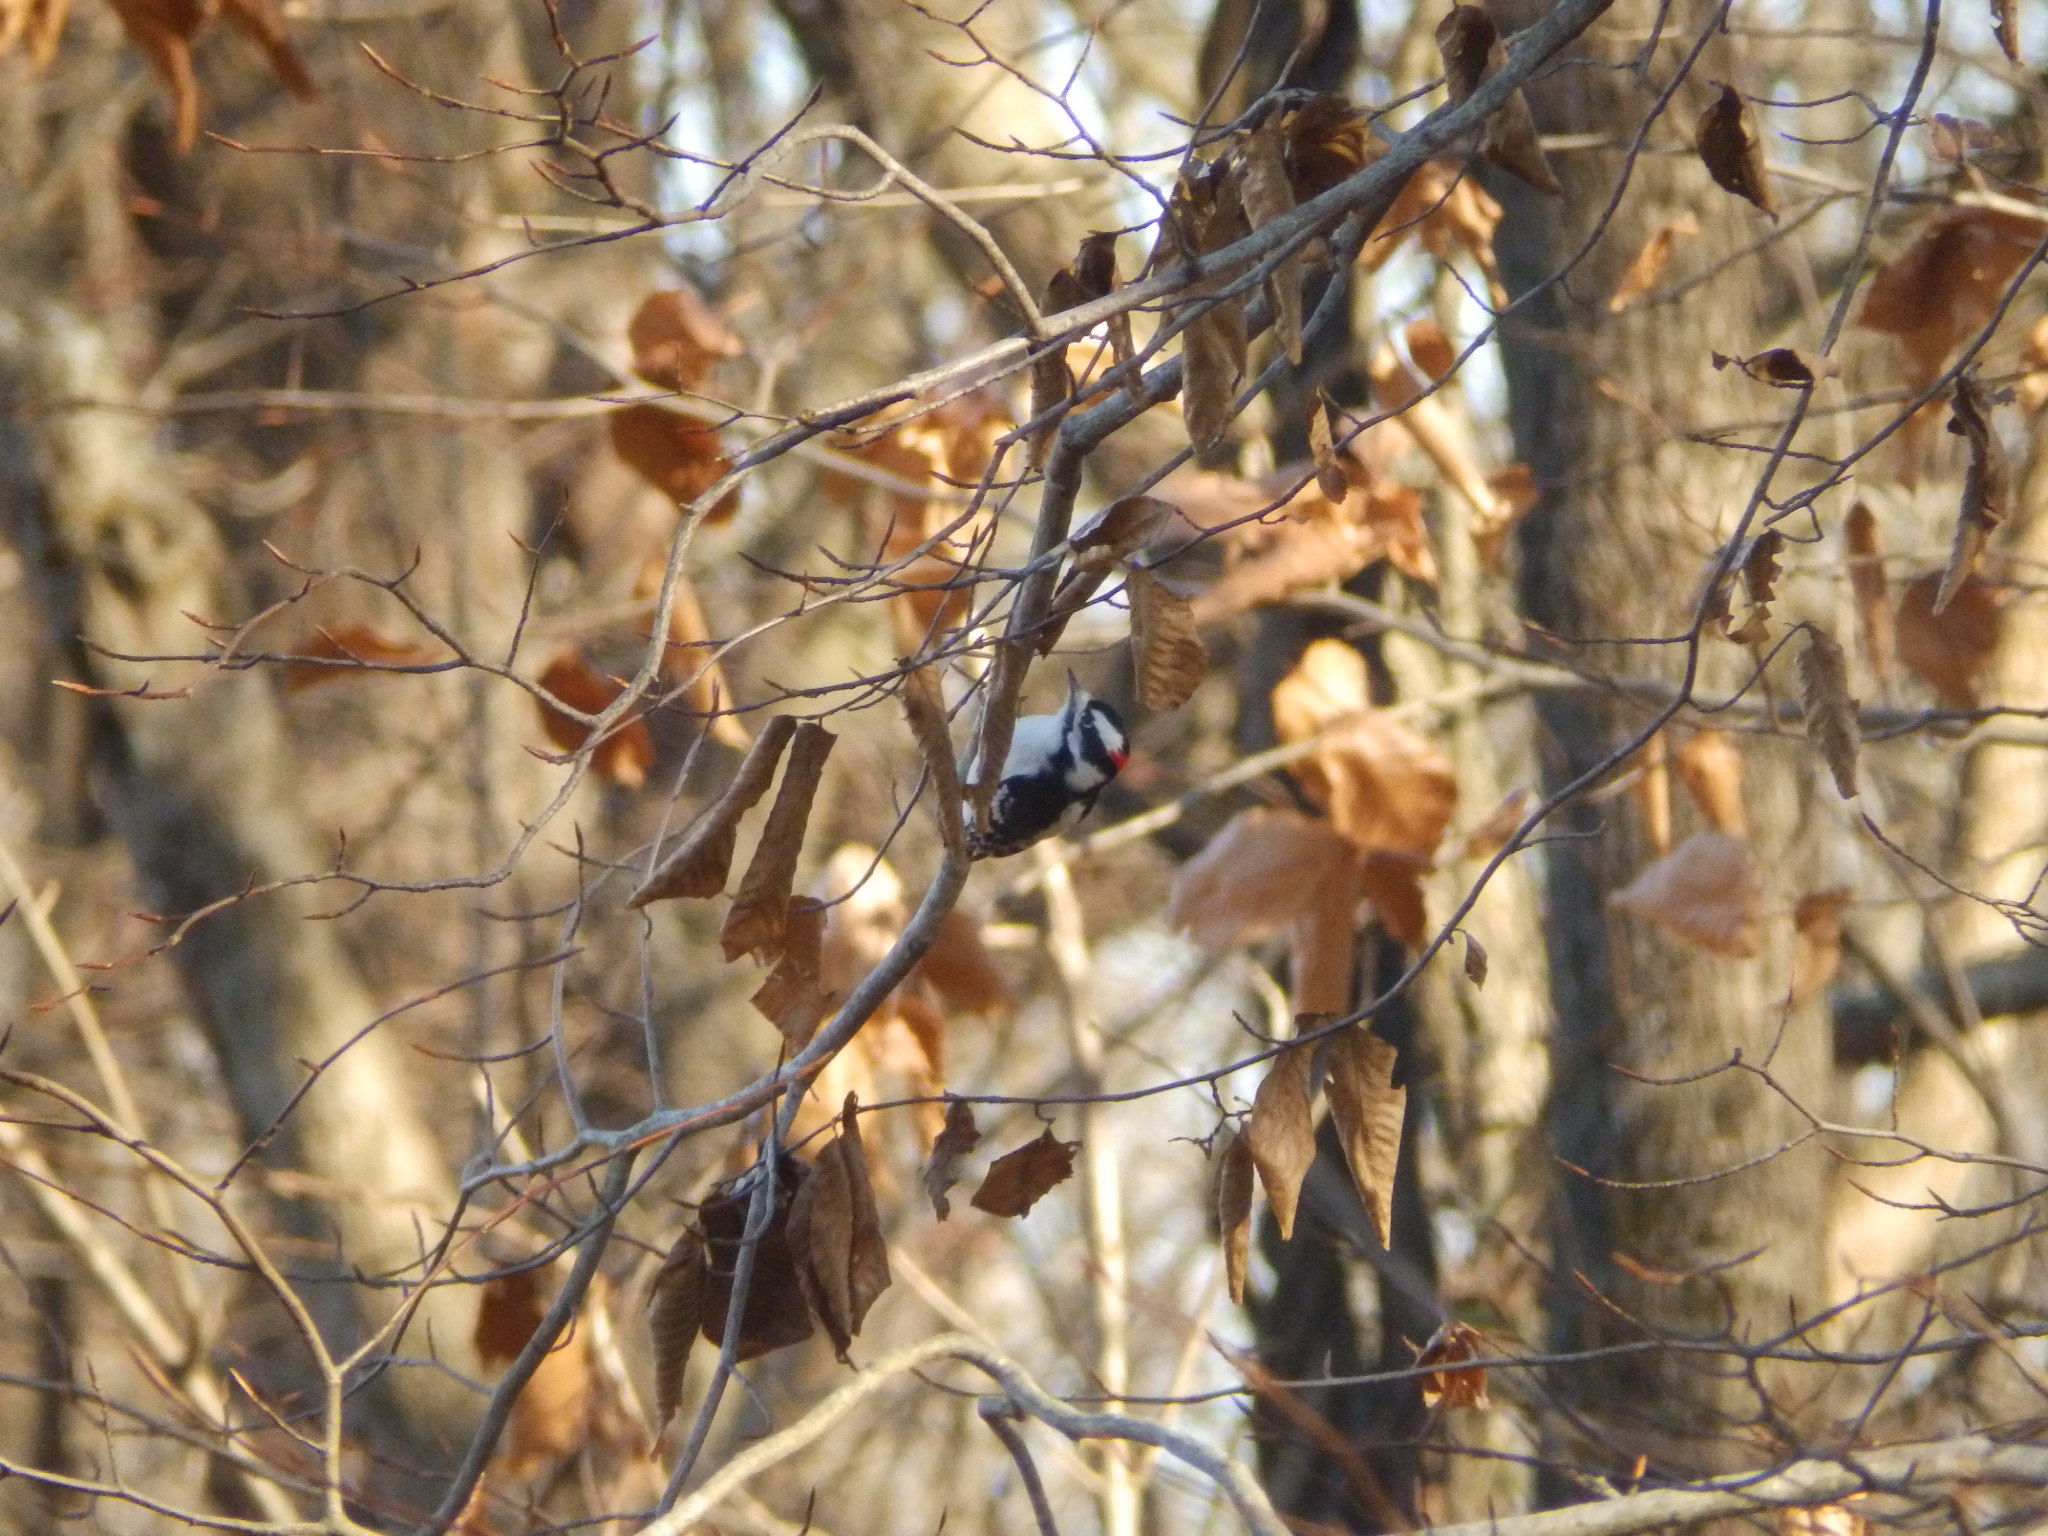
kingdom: Animalia
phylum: Chordata
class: Aves
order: Piciformes
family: Picidae
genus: Dryobates
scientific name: Dryobates pubescens
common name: Downy woodpecker
